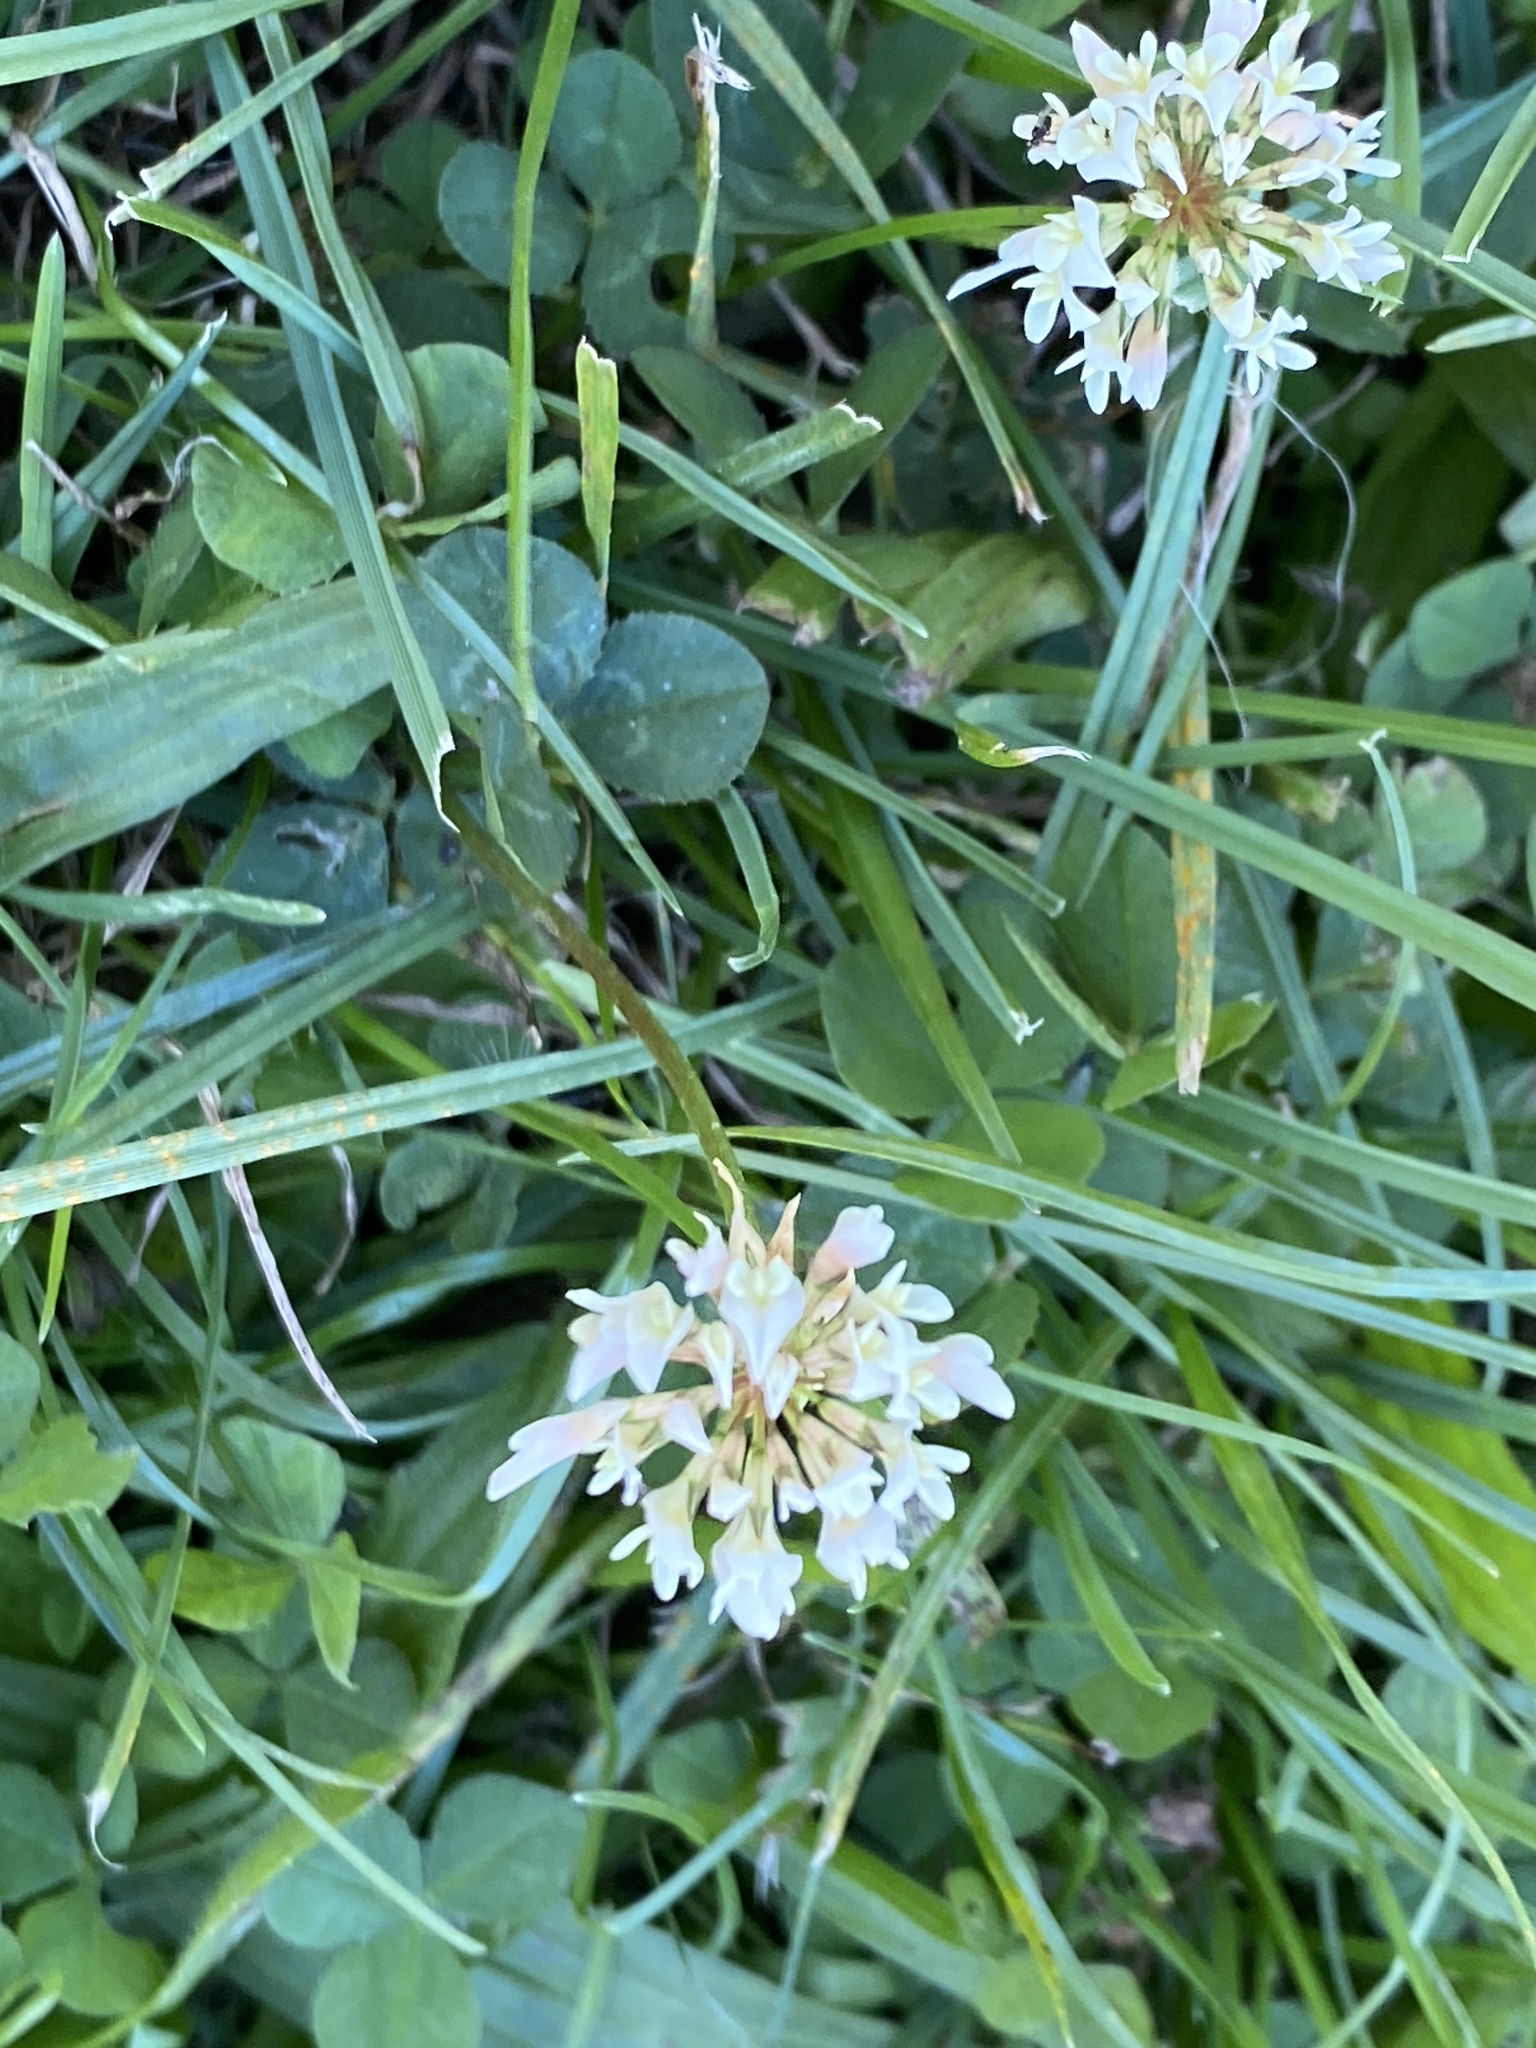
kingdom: Plantae
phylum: Tracheophyta
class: Magnoliopsida
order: Fabales
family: Fabaceae
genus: Trifolium
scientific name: Trifolium repens
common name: White clover
